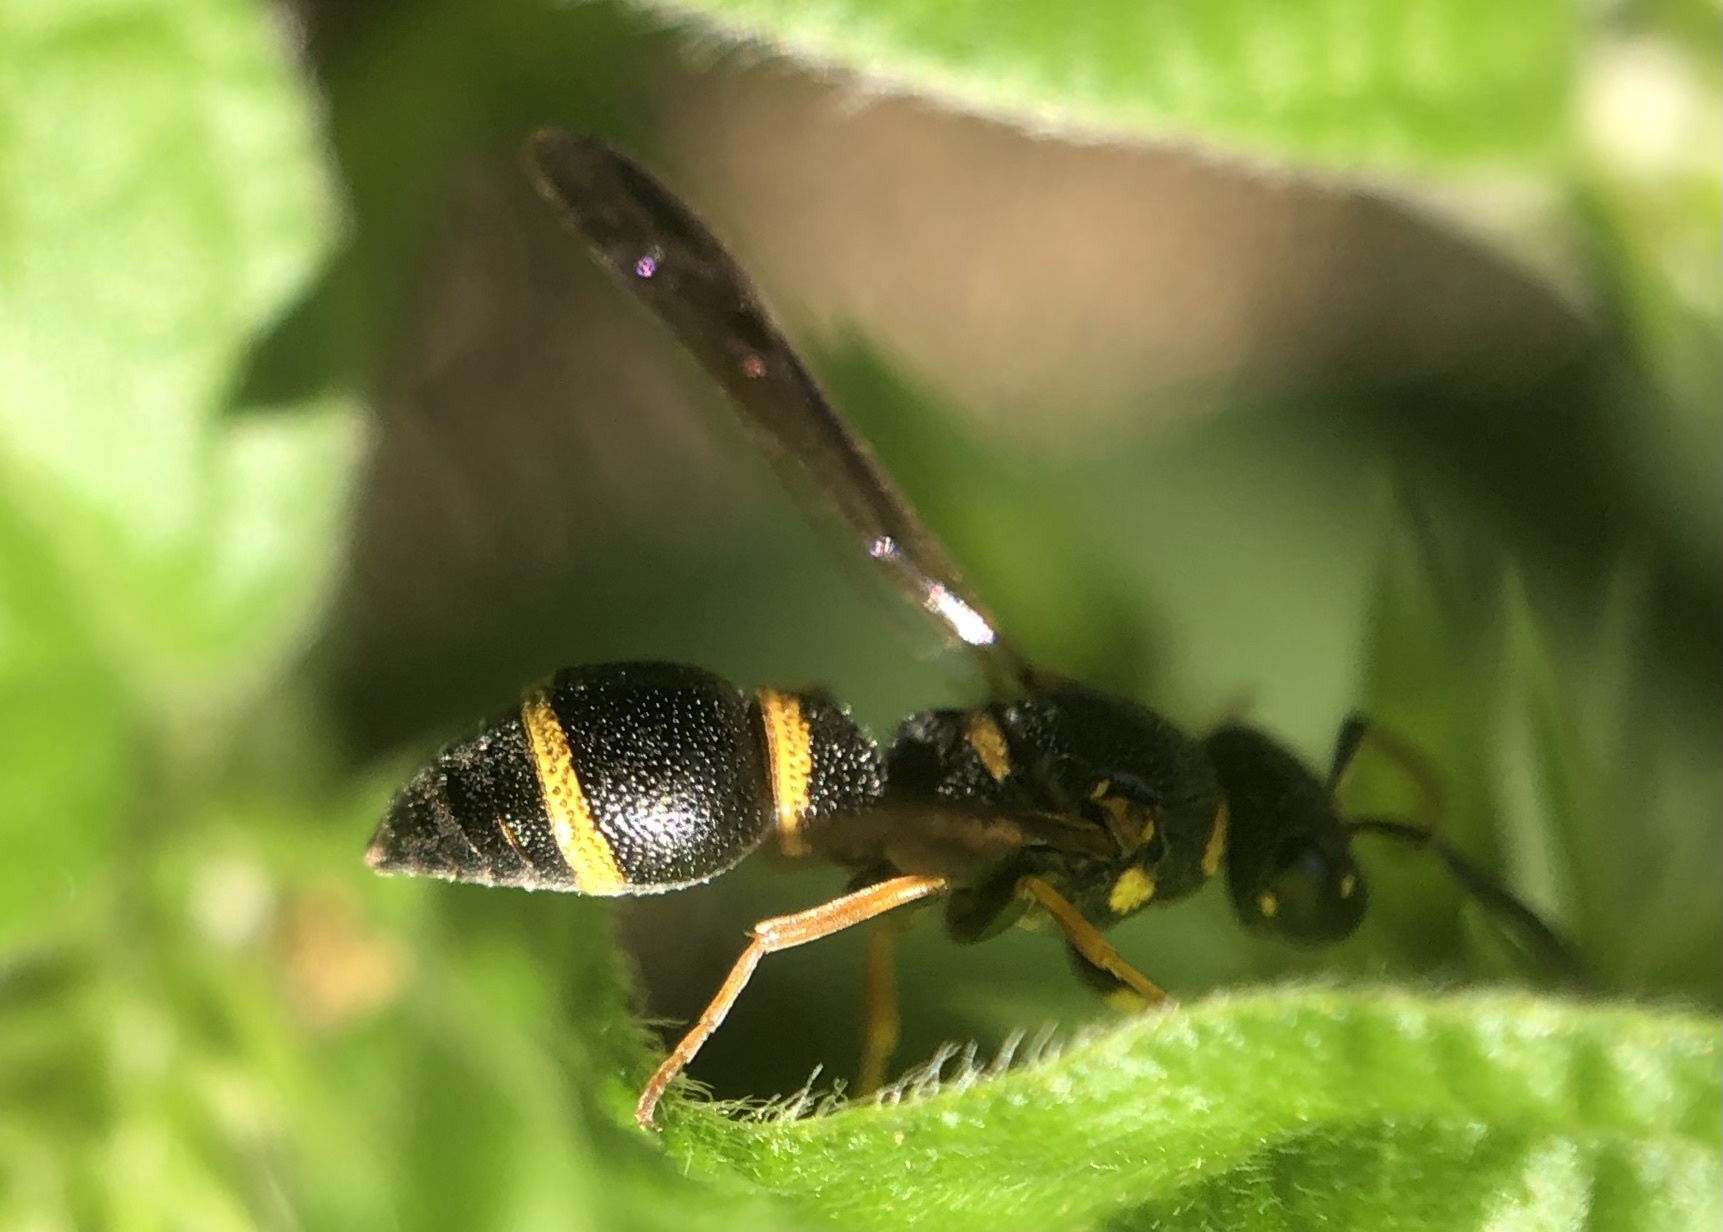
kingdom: Animalia
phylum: Arthropoda
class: Insecta
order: Hymenoptera
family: Eumenidae
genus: Parancistrocerus
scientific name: Parancistrocerus perennis
